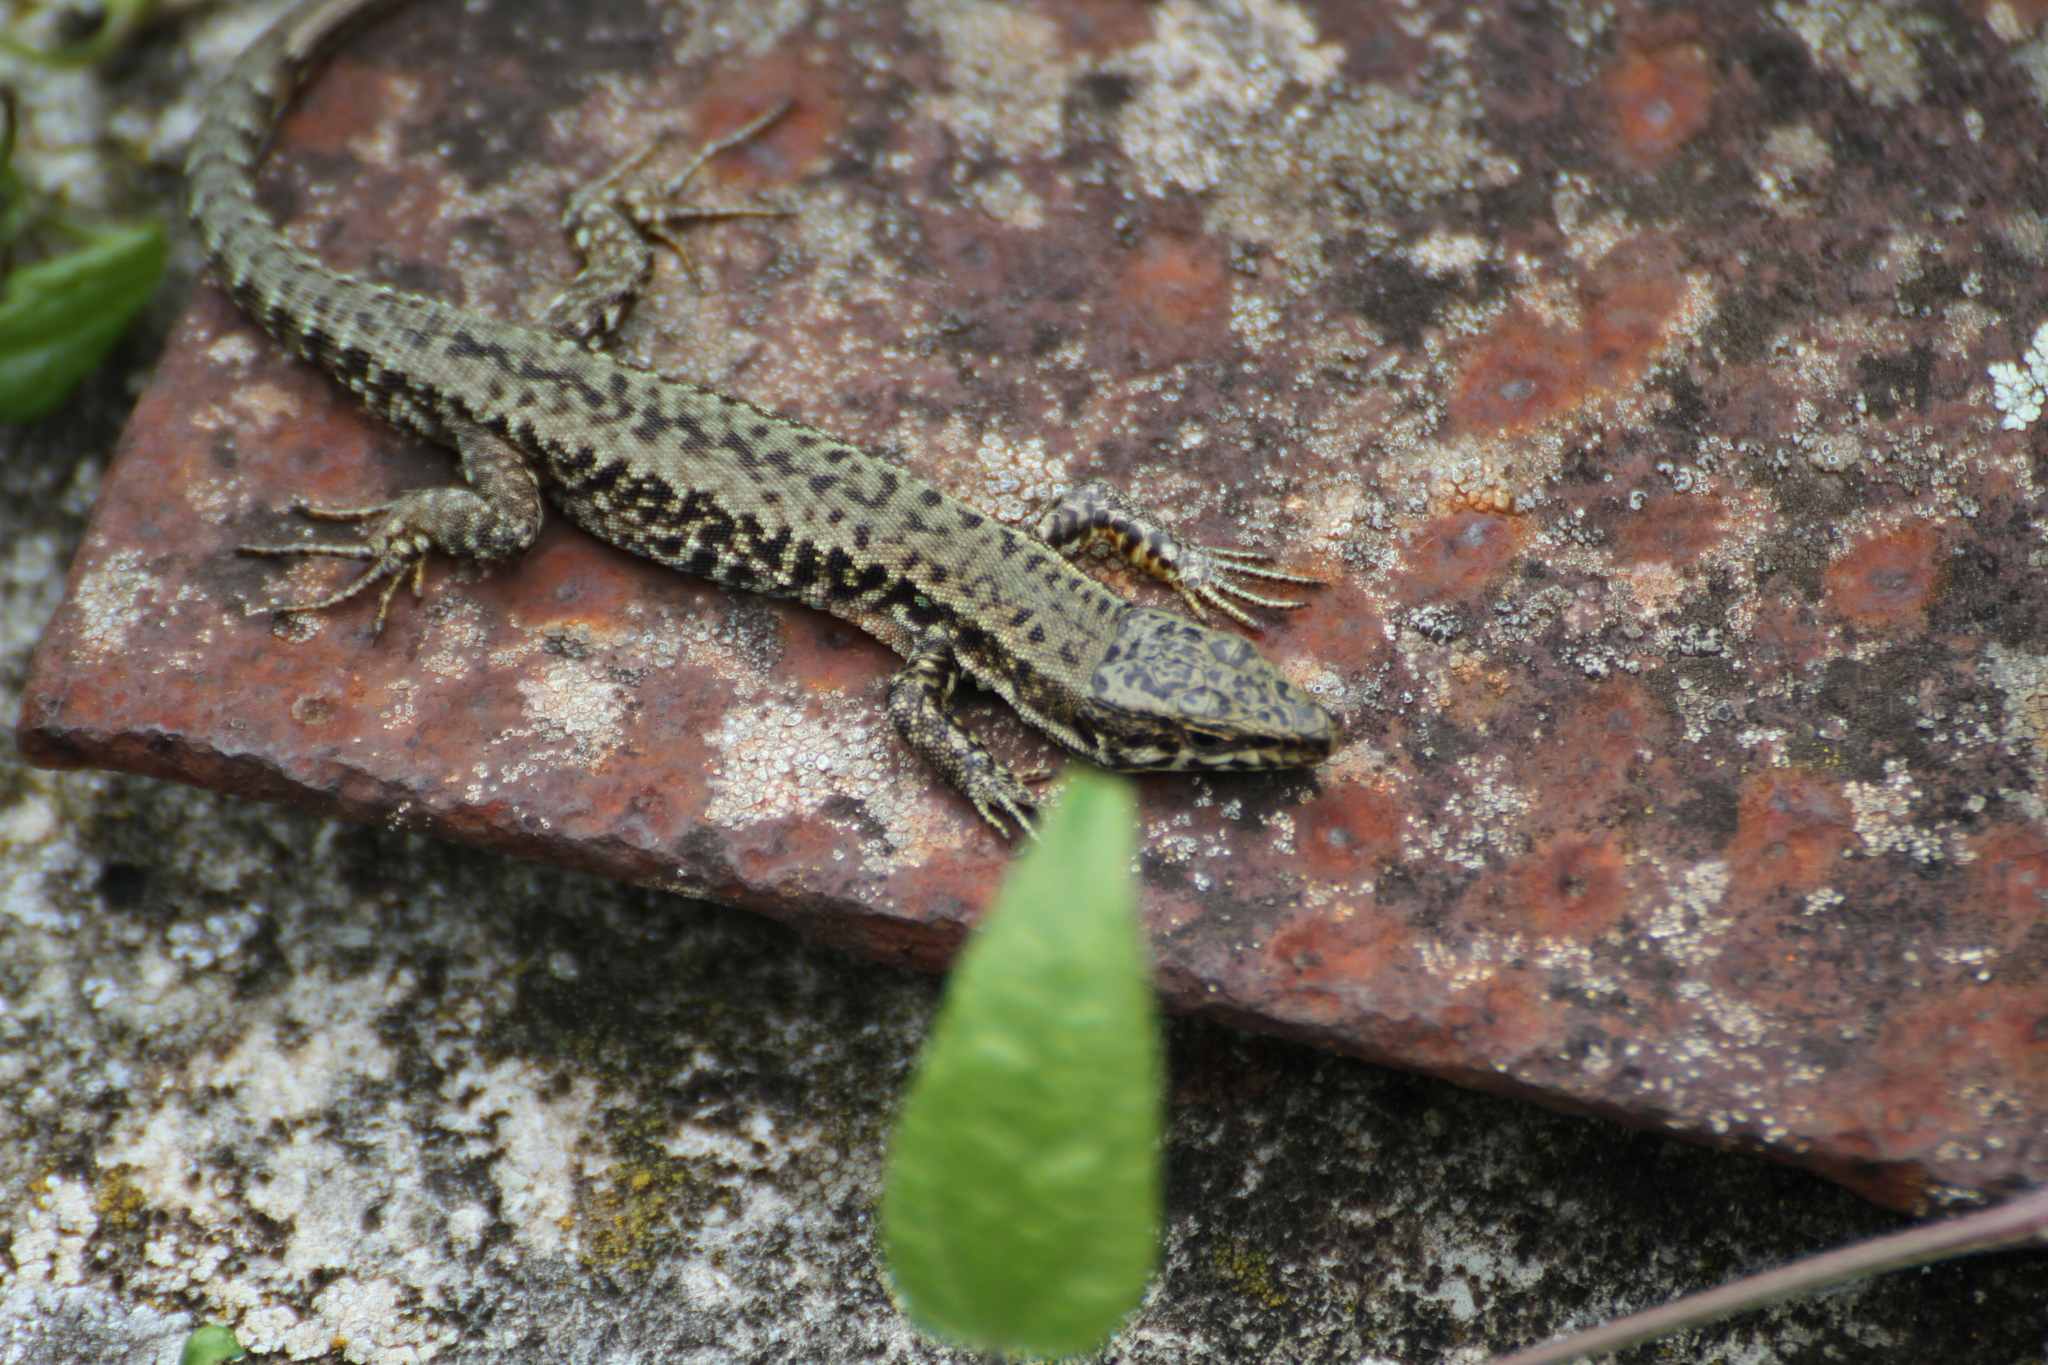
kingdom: Animalia
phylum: Chordata
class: Squamata
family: Lacertidae
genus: Podarcis
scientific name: Podarcis muralis
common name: Common wall lizard
